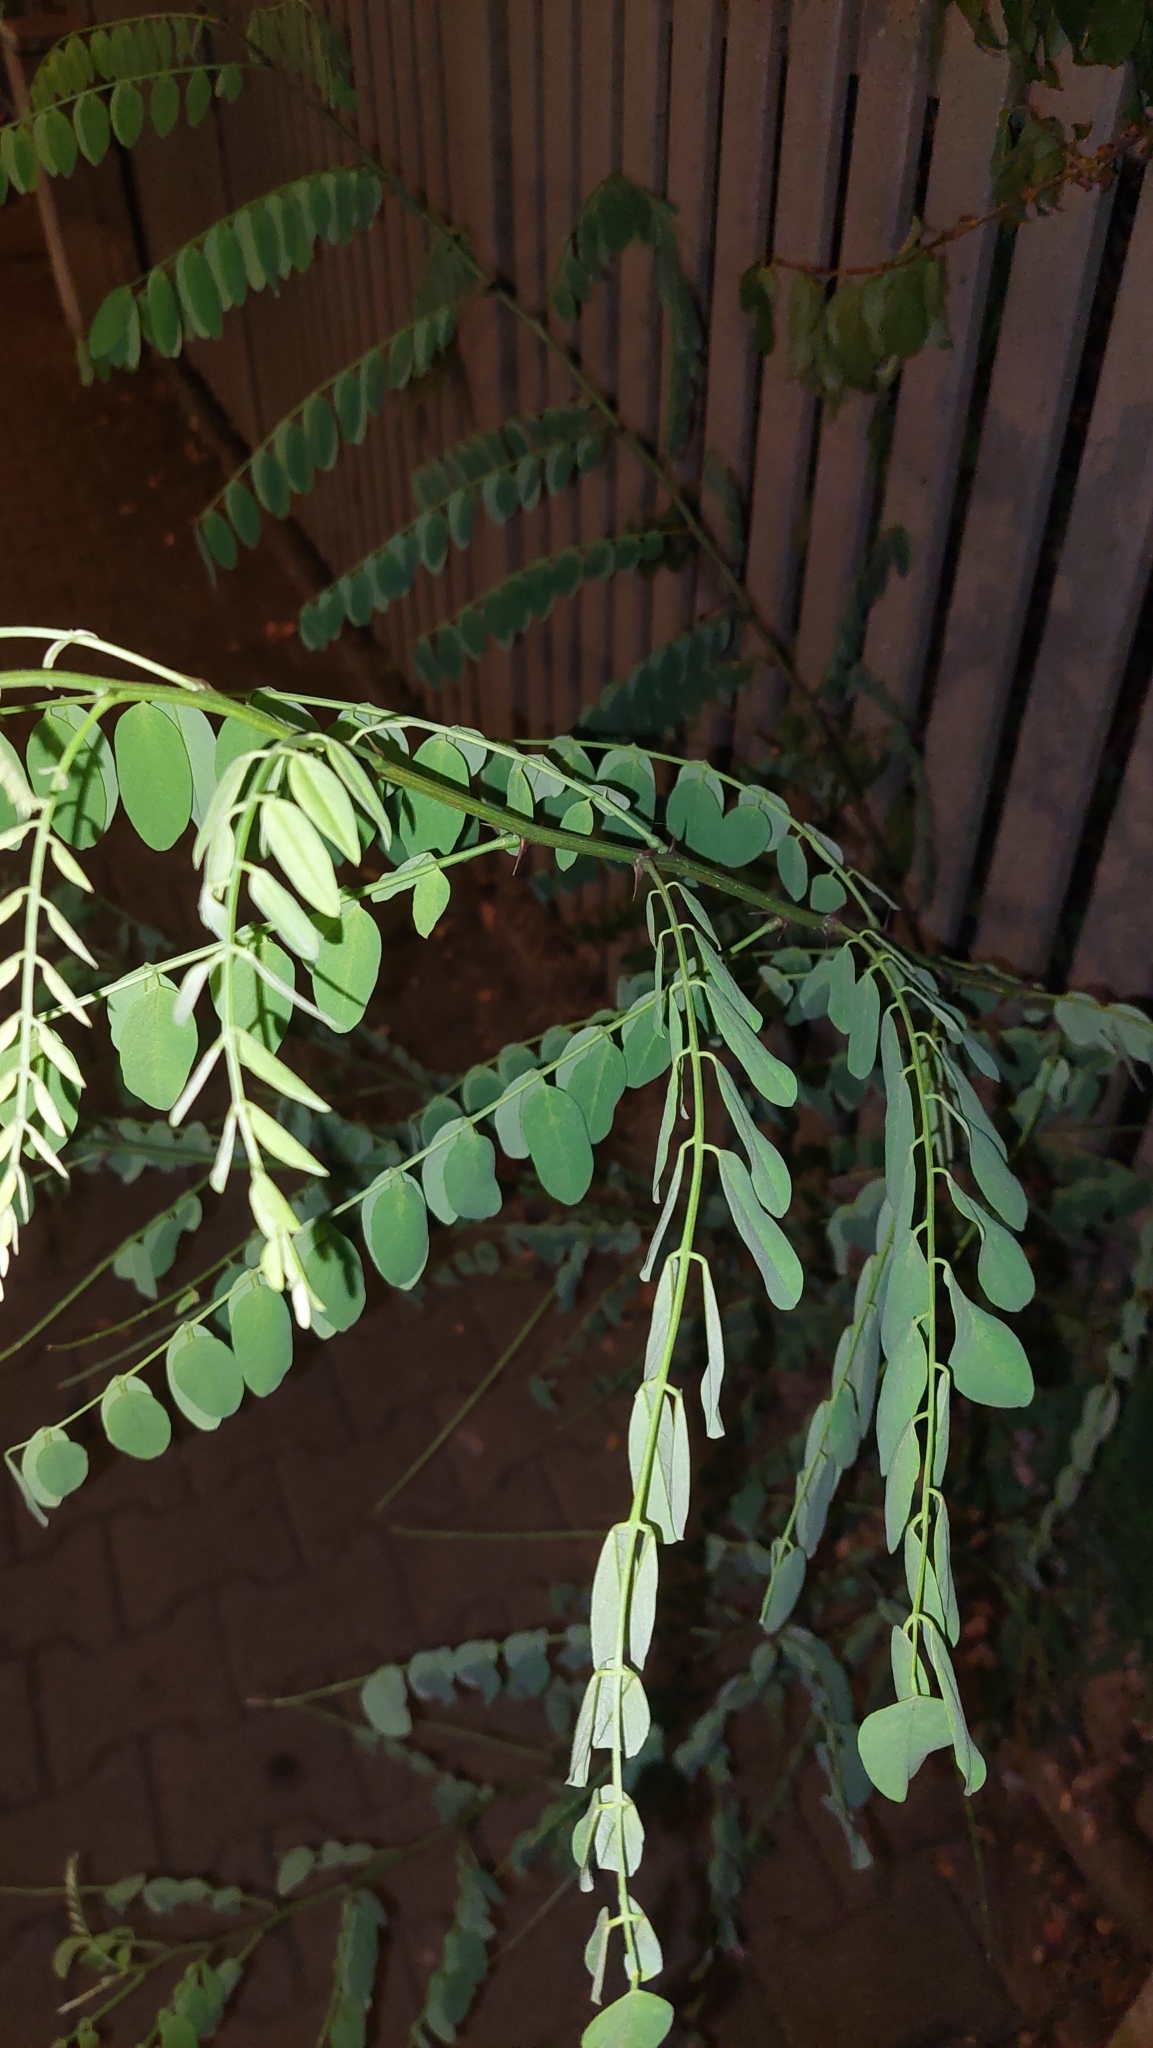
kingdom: Plantae
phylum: Tracheophyta
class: Magnoliopsida
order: Fabales
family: Fabaceae
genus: Robinia
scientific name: Robinia pseudoacacia
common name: Black locust
